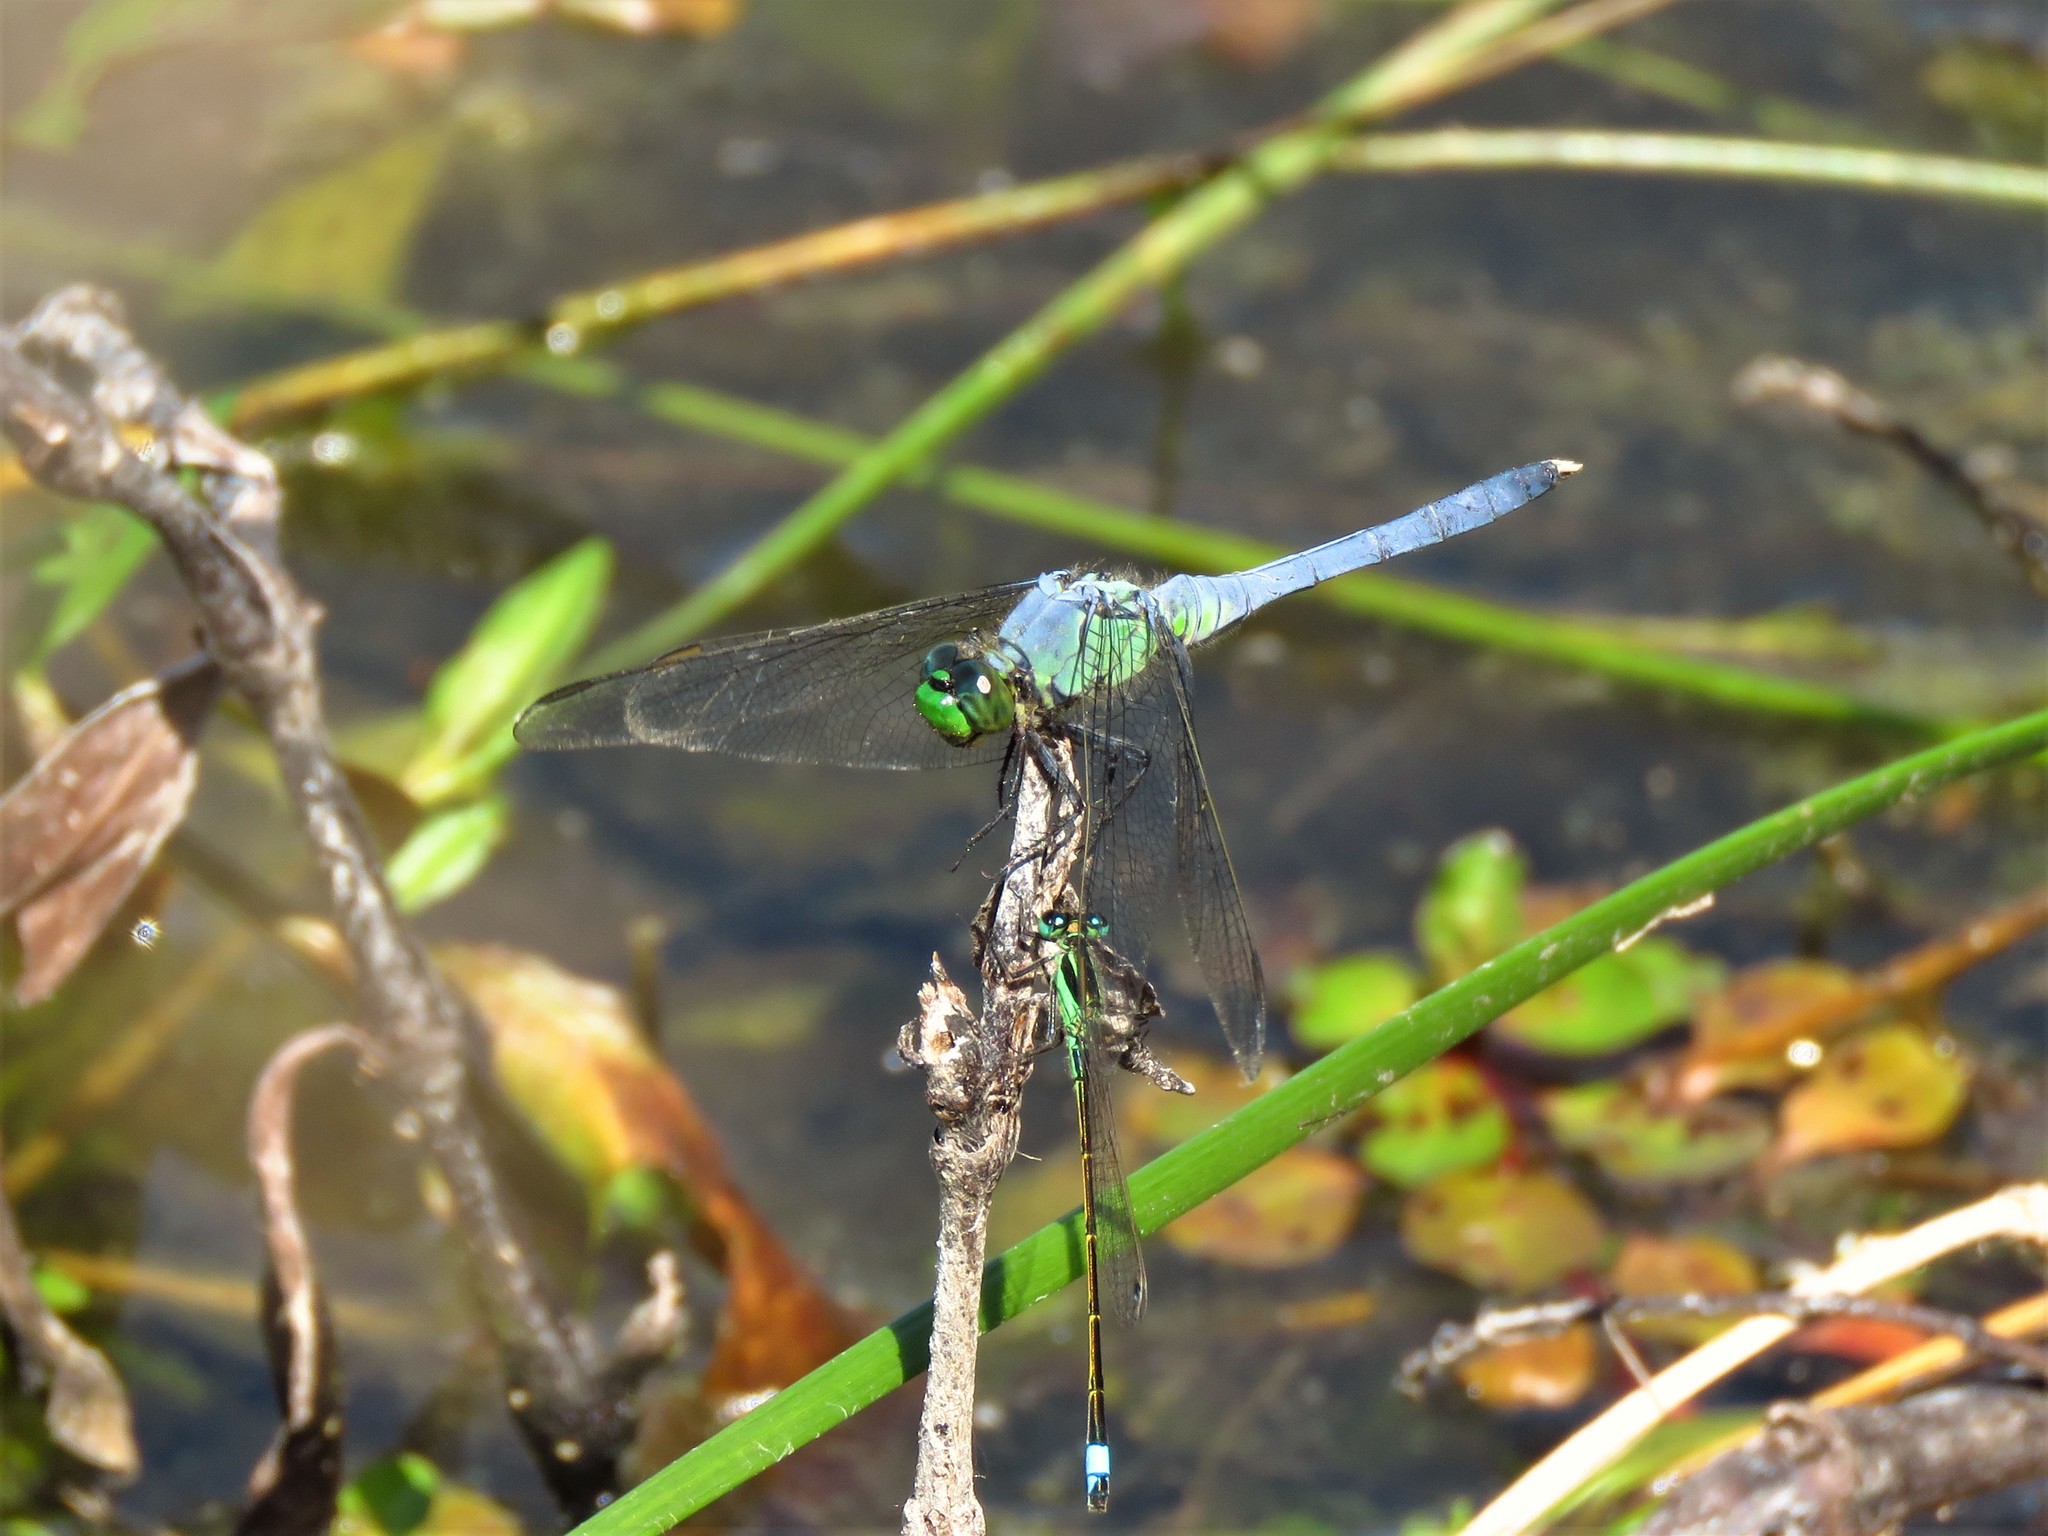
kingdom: Animalia
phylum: Arthropoda
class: Insecta
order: Odonata
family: Libellulidae
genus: Erythemis
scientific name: Erythemis simplicicollis
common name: Eastern pondhawk
